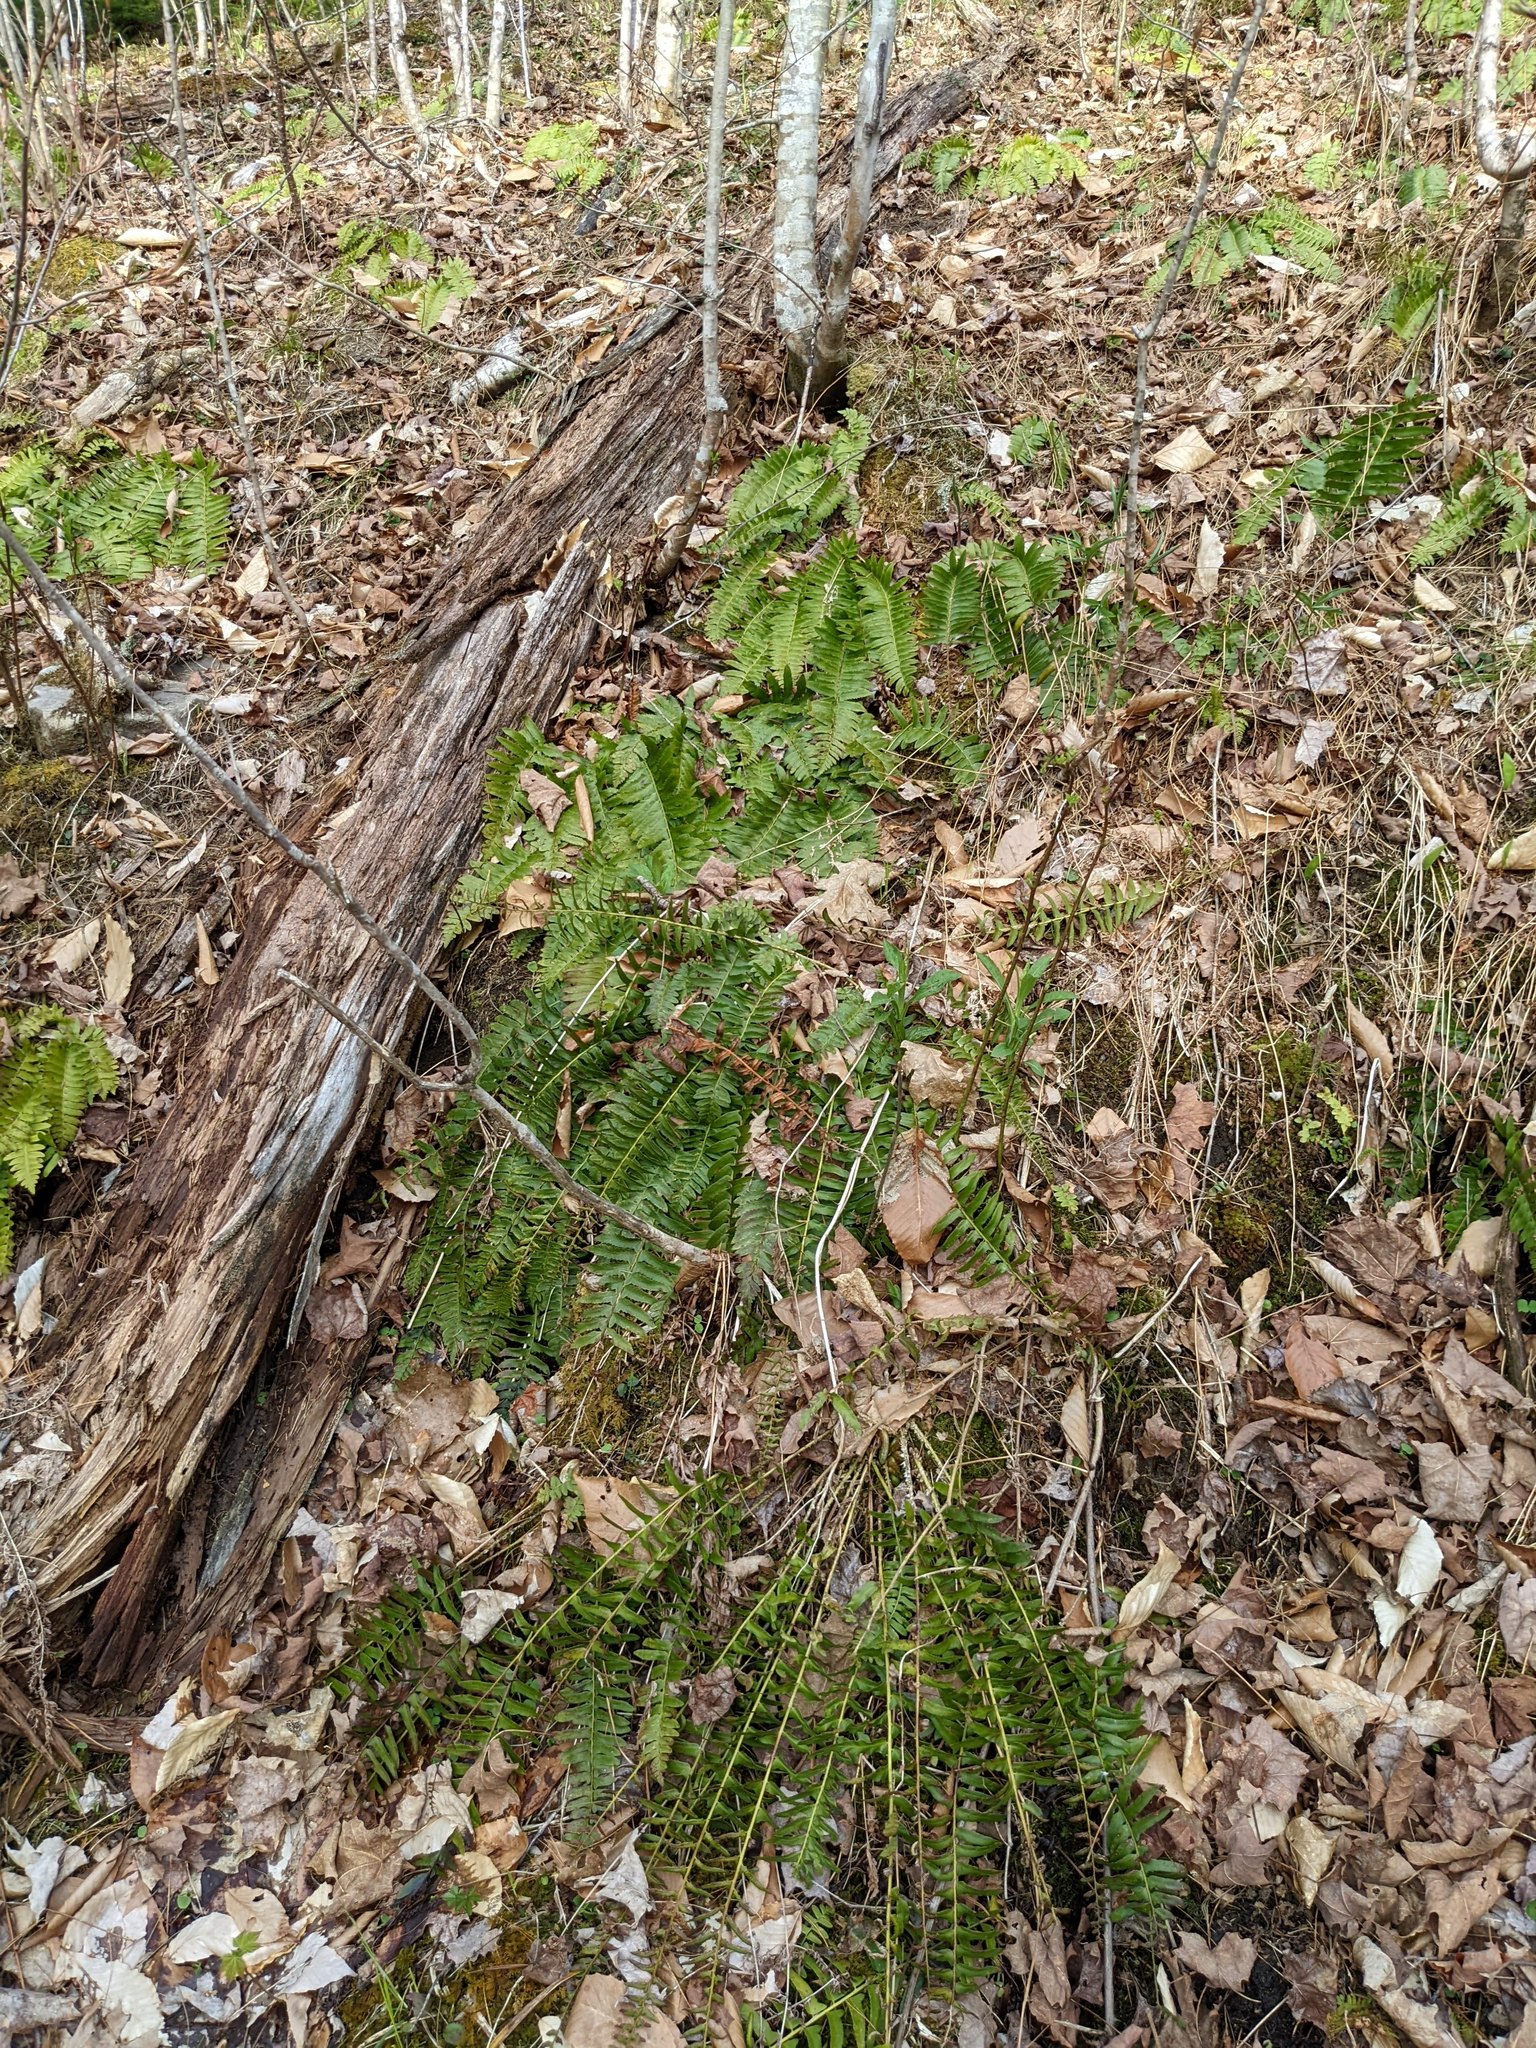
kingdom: Plantae
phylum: Tracheophyta
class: Polypodiopsida
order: Polypodiales
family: Dryopteridaceae
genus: Polystichum
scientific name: Polystichum acrostichoides
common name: Christmas fern
